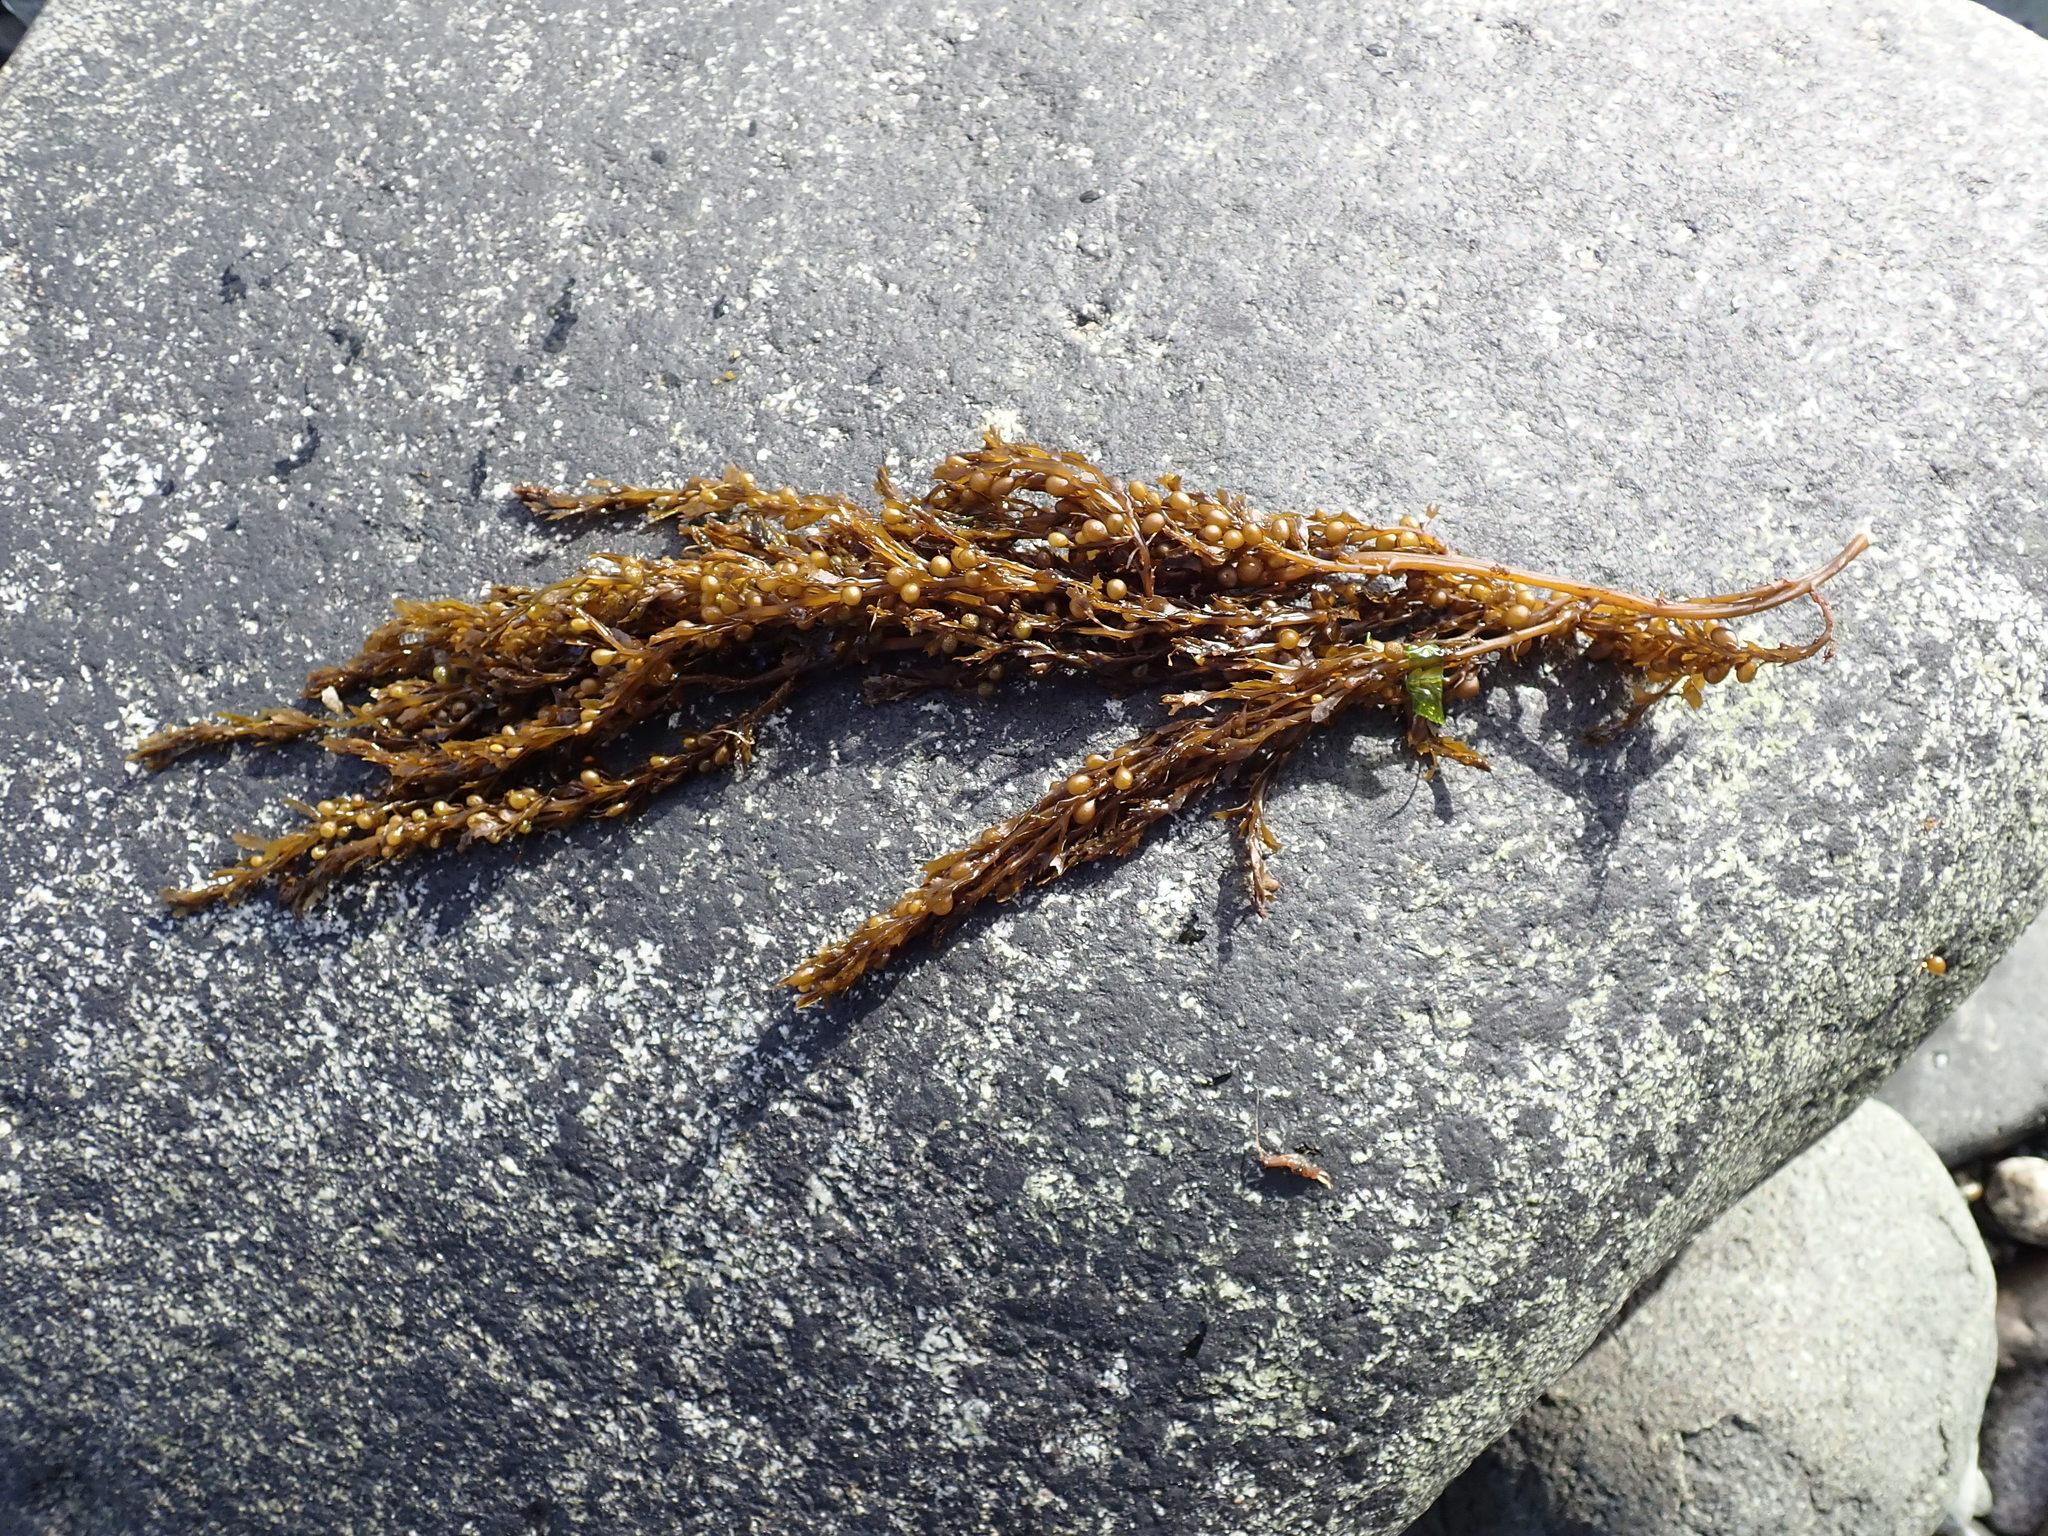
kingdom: Chromista
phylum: Ochrophyta
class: Phaeophyceae
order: Fucales
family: Sargassaceae
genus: Sargassum
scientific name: Sargassum muticum
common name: Japweed
